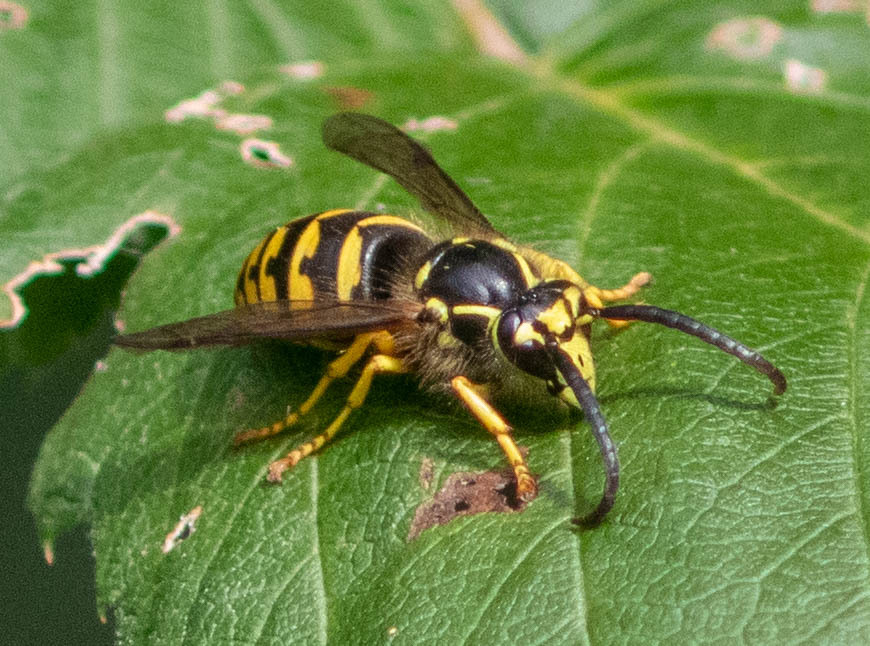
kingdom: Animalia
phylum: Arthropoda
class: Insecta
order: Hymenoptera
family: Vespidae
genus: Dolichovespula
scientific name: Dolichovespula arenaria
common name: Aerial yellowjacket
